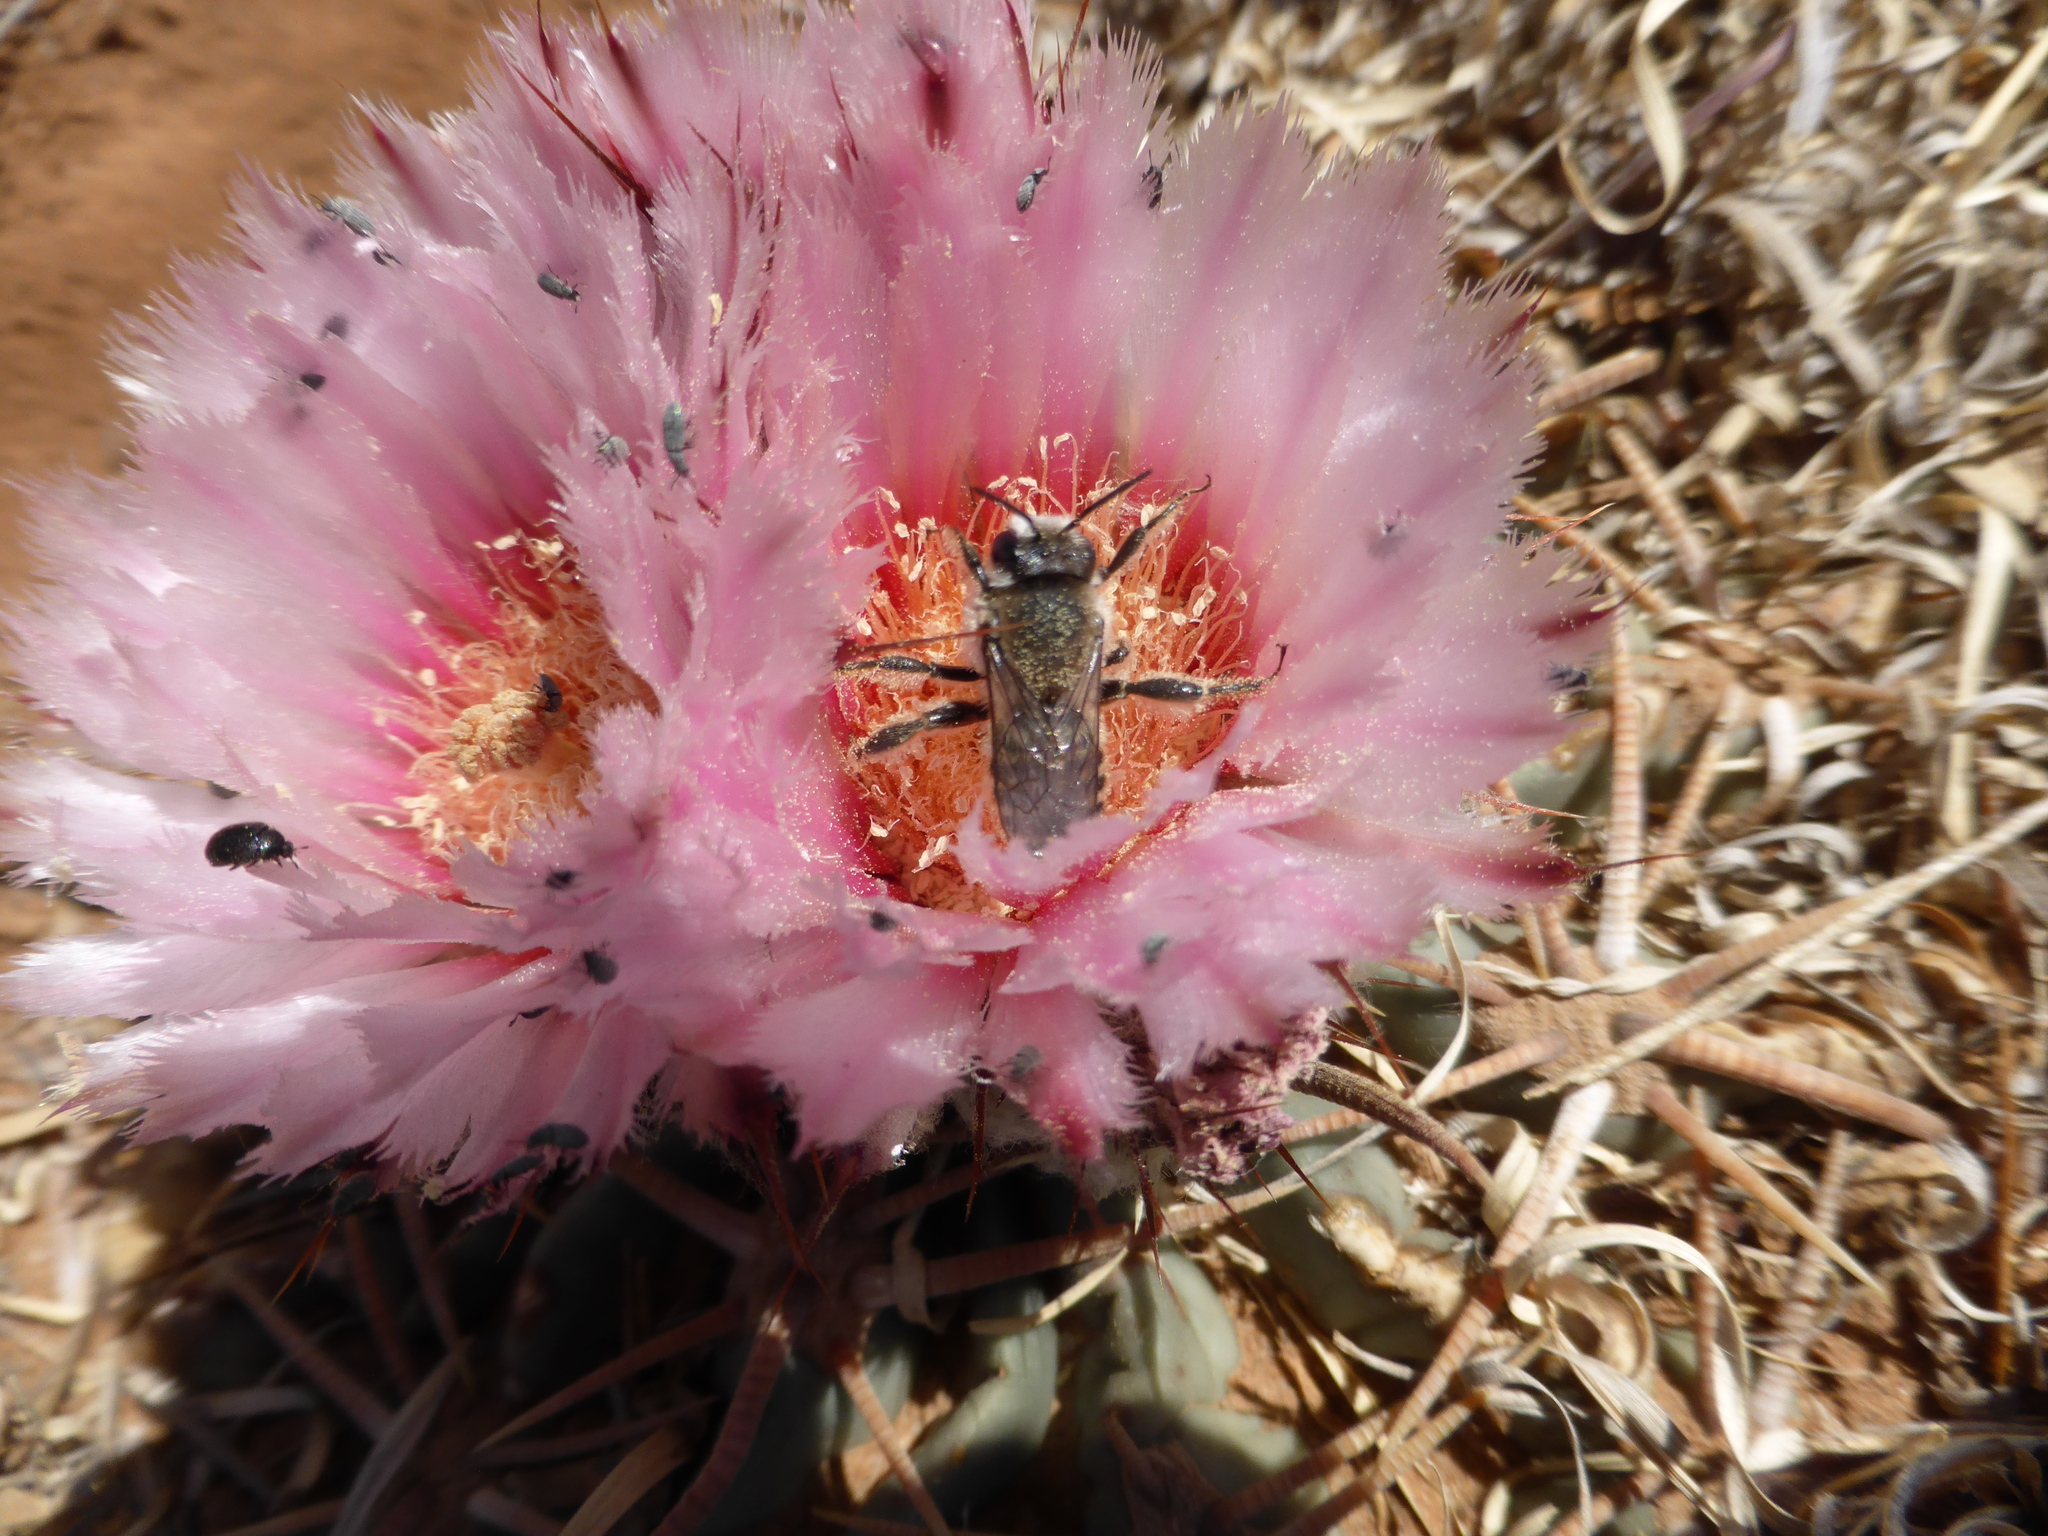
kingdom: Plantae
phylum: Tracheophyta
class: Magnoliopsida
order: Caryophyllales
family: Cactaceae
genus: Echinocactus
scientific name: Echinocactus texensis
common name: Devil's pincushion
